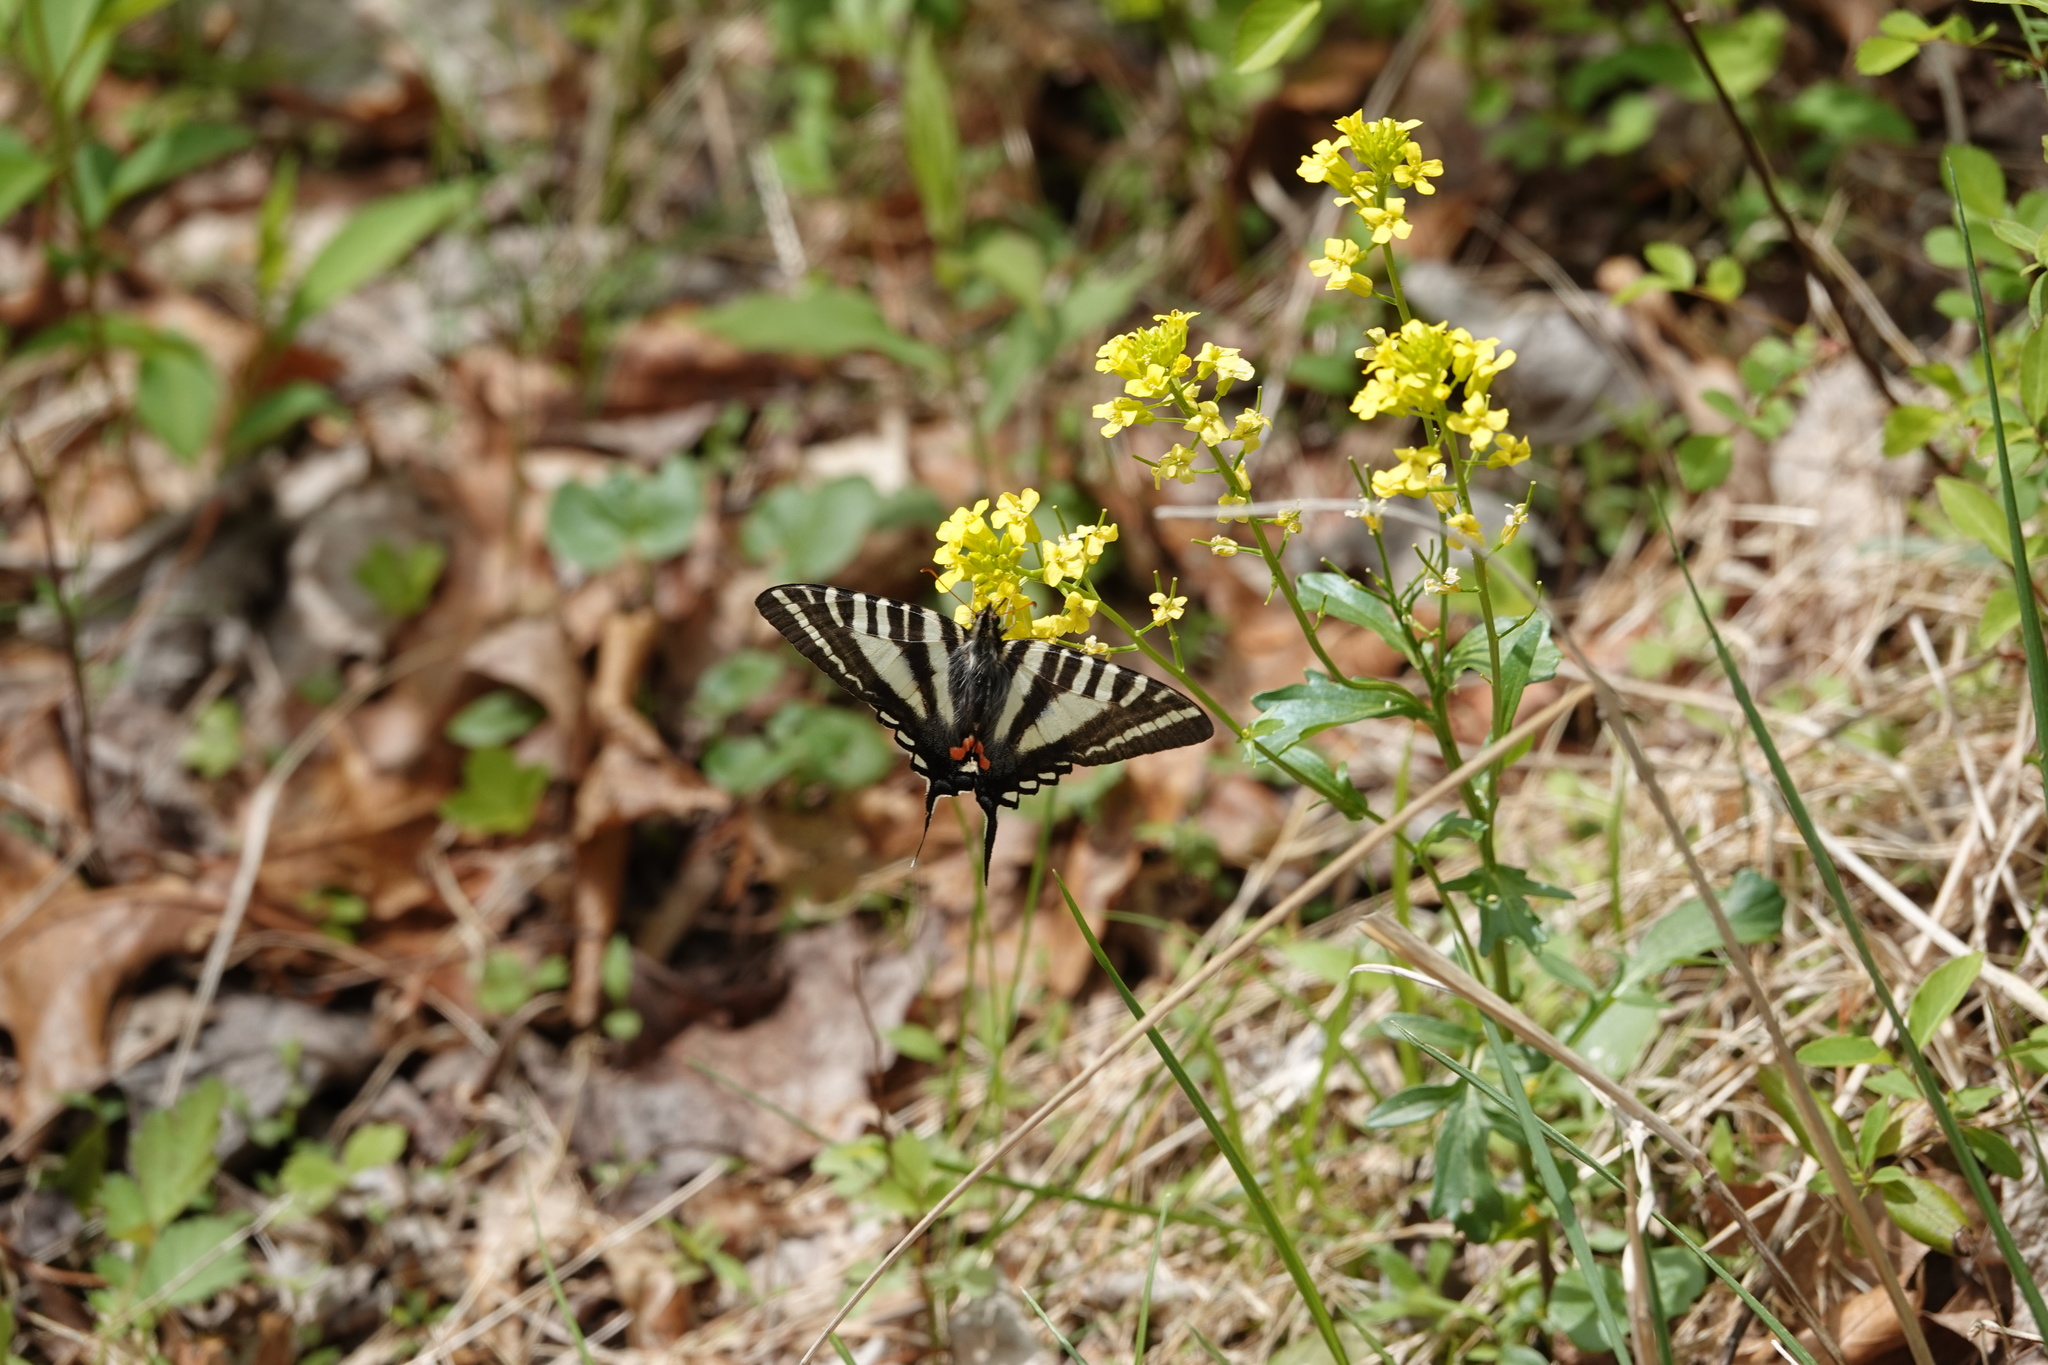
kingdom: Animalia
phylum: Arthropoda
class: Insecta
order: Lepidoptera
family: Papilionidae
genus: Protographium
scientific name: Protographium marcellus
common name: Zebra swallowtail
